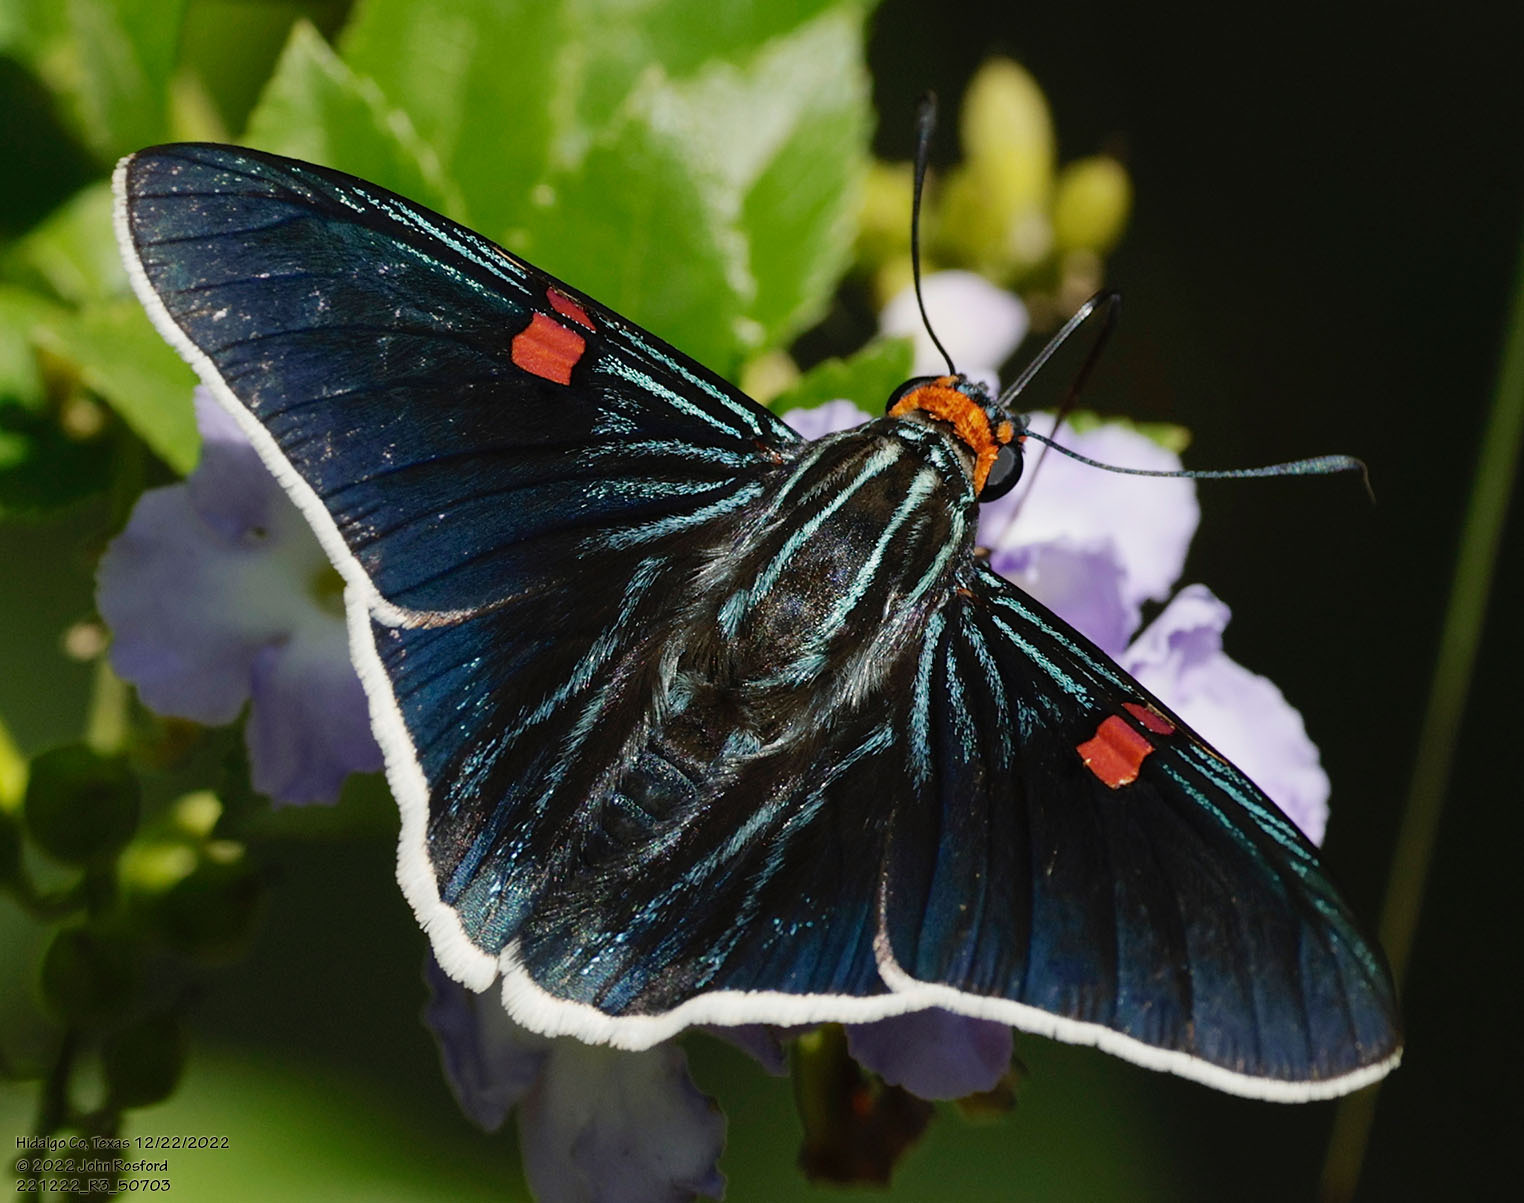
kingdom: Animalia
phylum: Arthropoda
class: Insecta
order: Lepidoptera
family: Hesperiidae
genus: Phocides
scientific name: Phocides lilea
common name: Guava skipper
